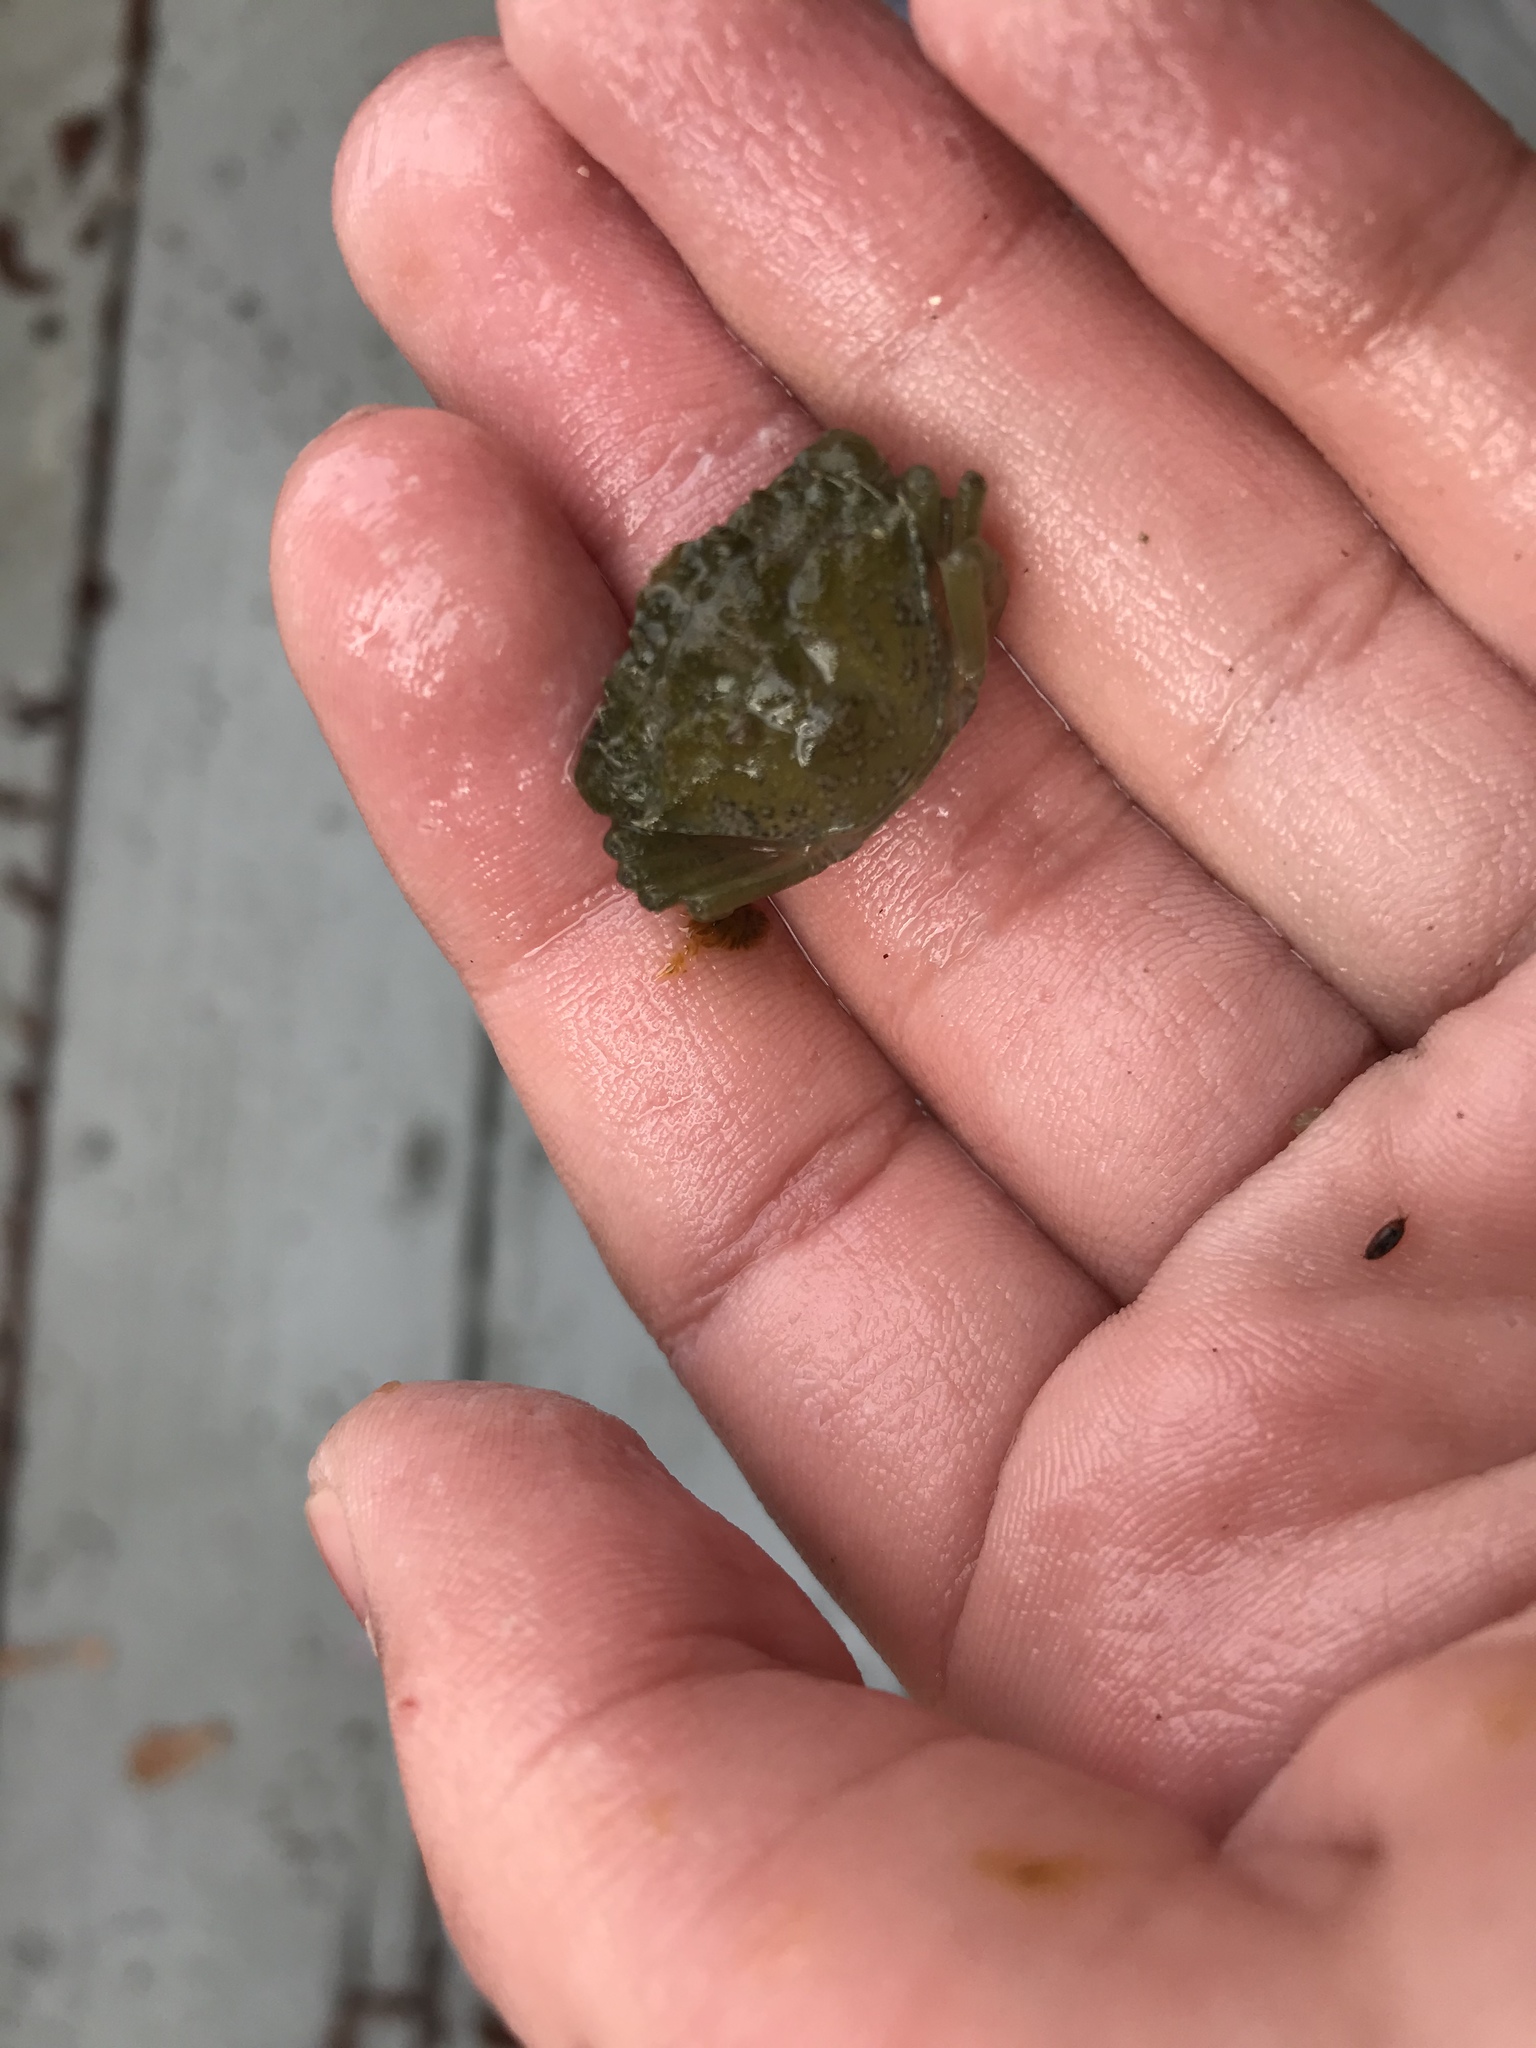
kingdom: Animalia
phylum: Arthropoda
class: Malacostraca
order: Decapoda
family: Carcinidae
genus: Carcinus
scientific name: Carcinus maenas
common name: European green crab
